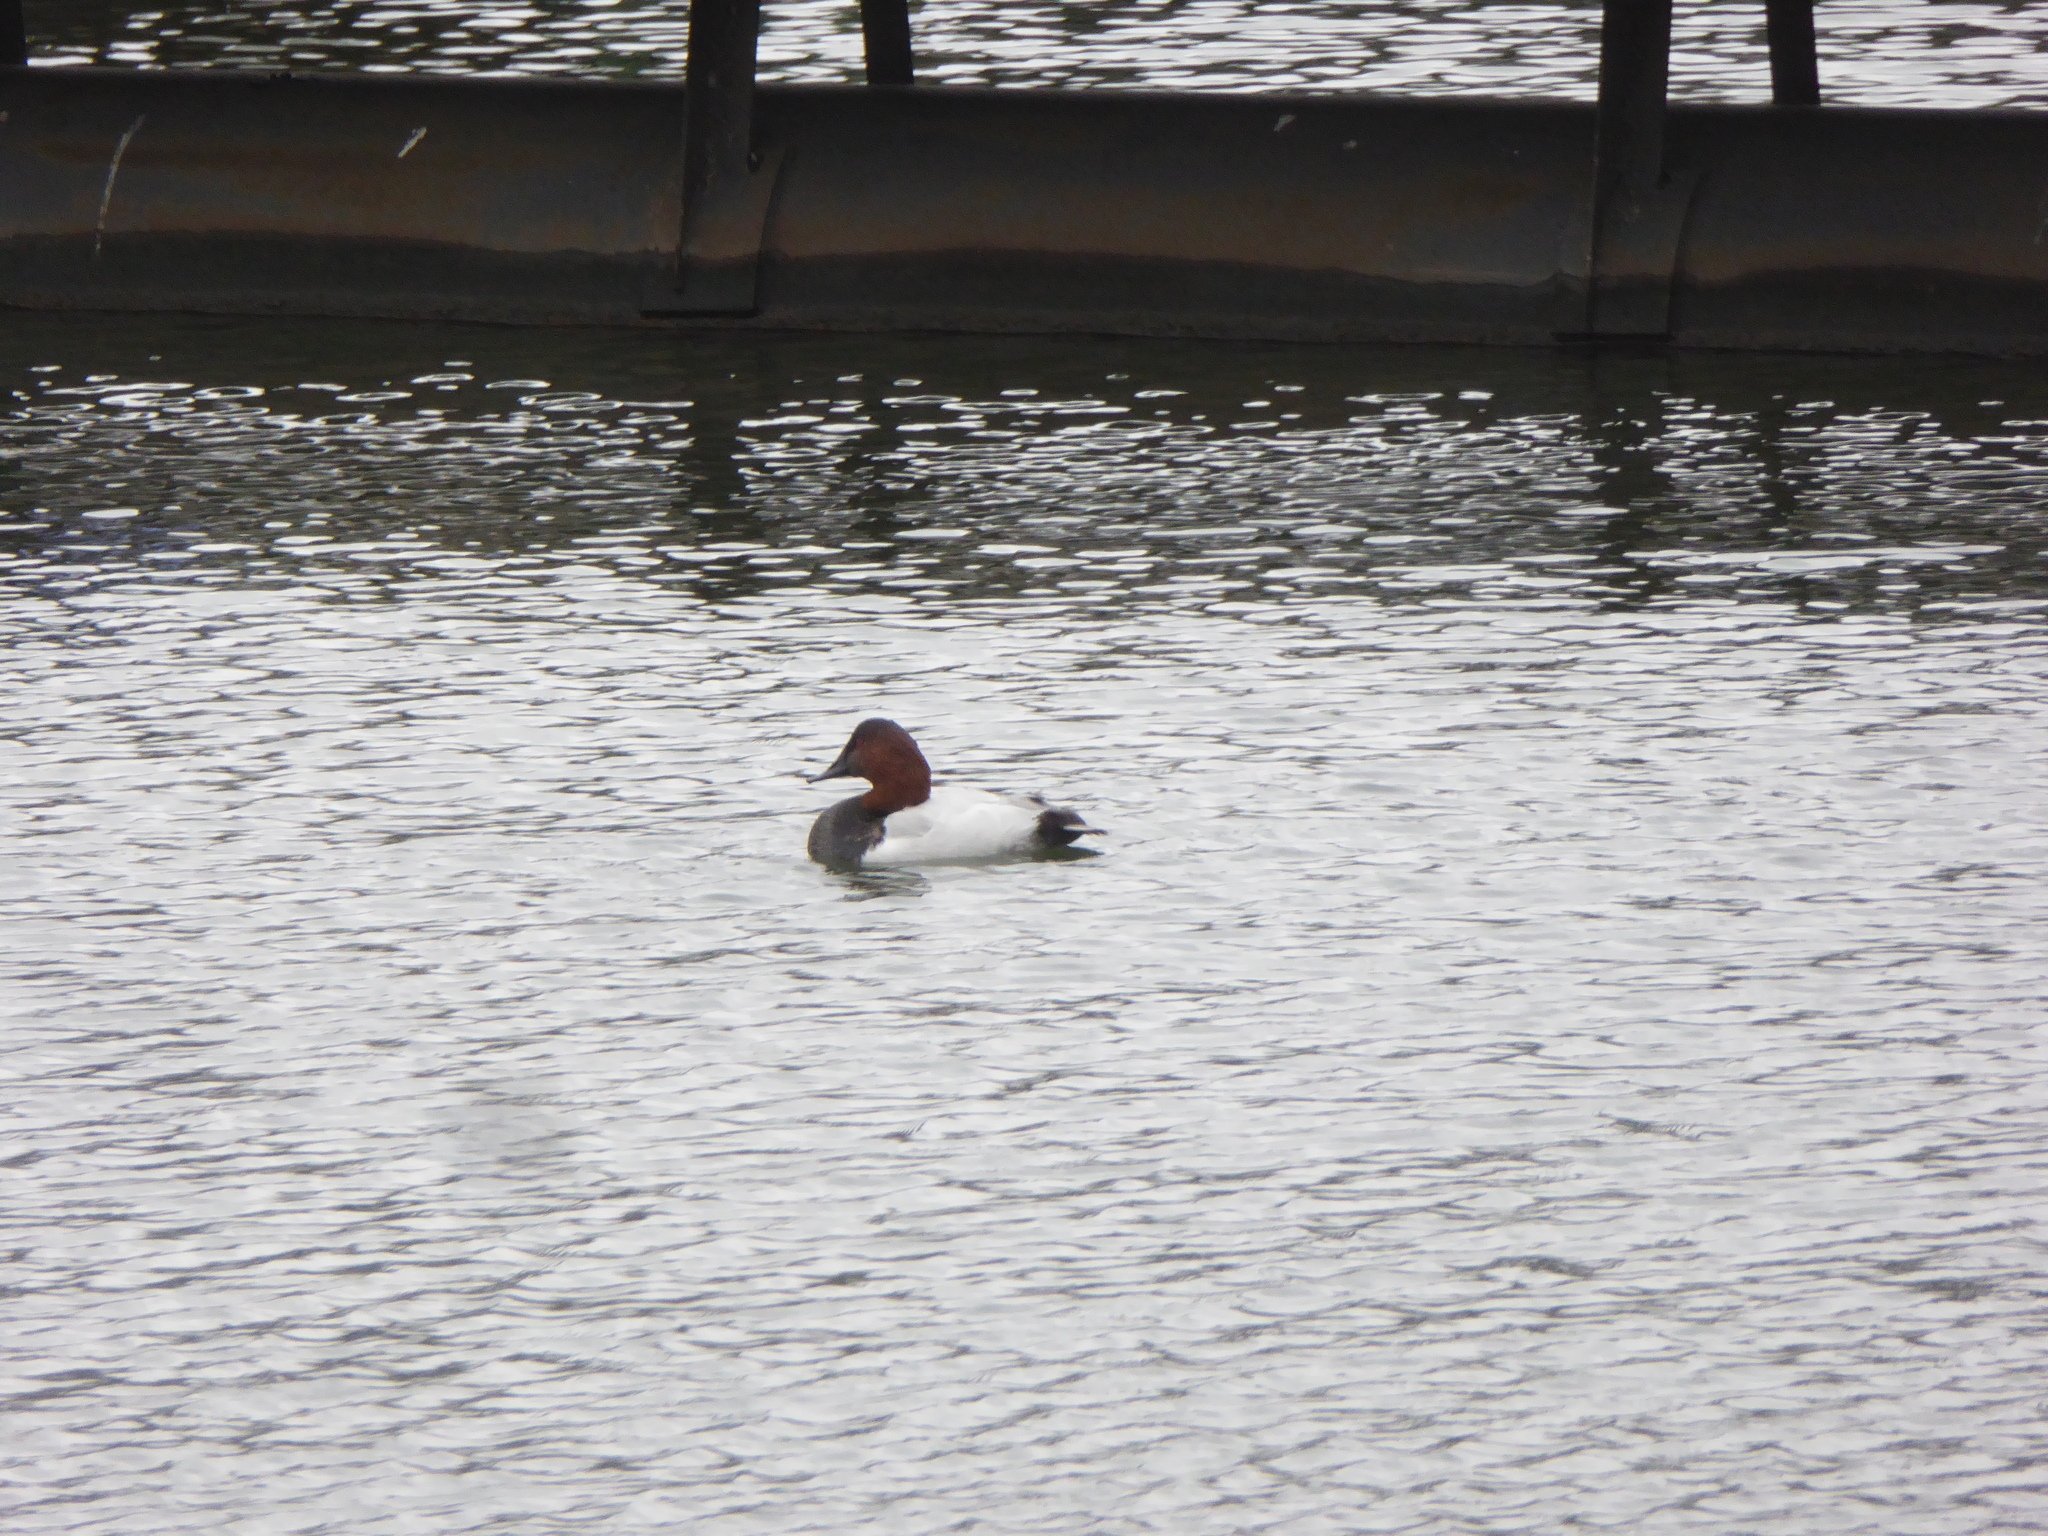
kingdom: Animalia
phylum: Chordata
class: Aves
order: Anseriformes
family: Anatidae
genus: Aythya
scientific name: Aythya valisineria
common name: Canvasback
